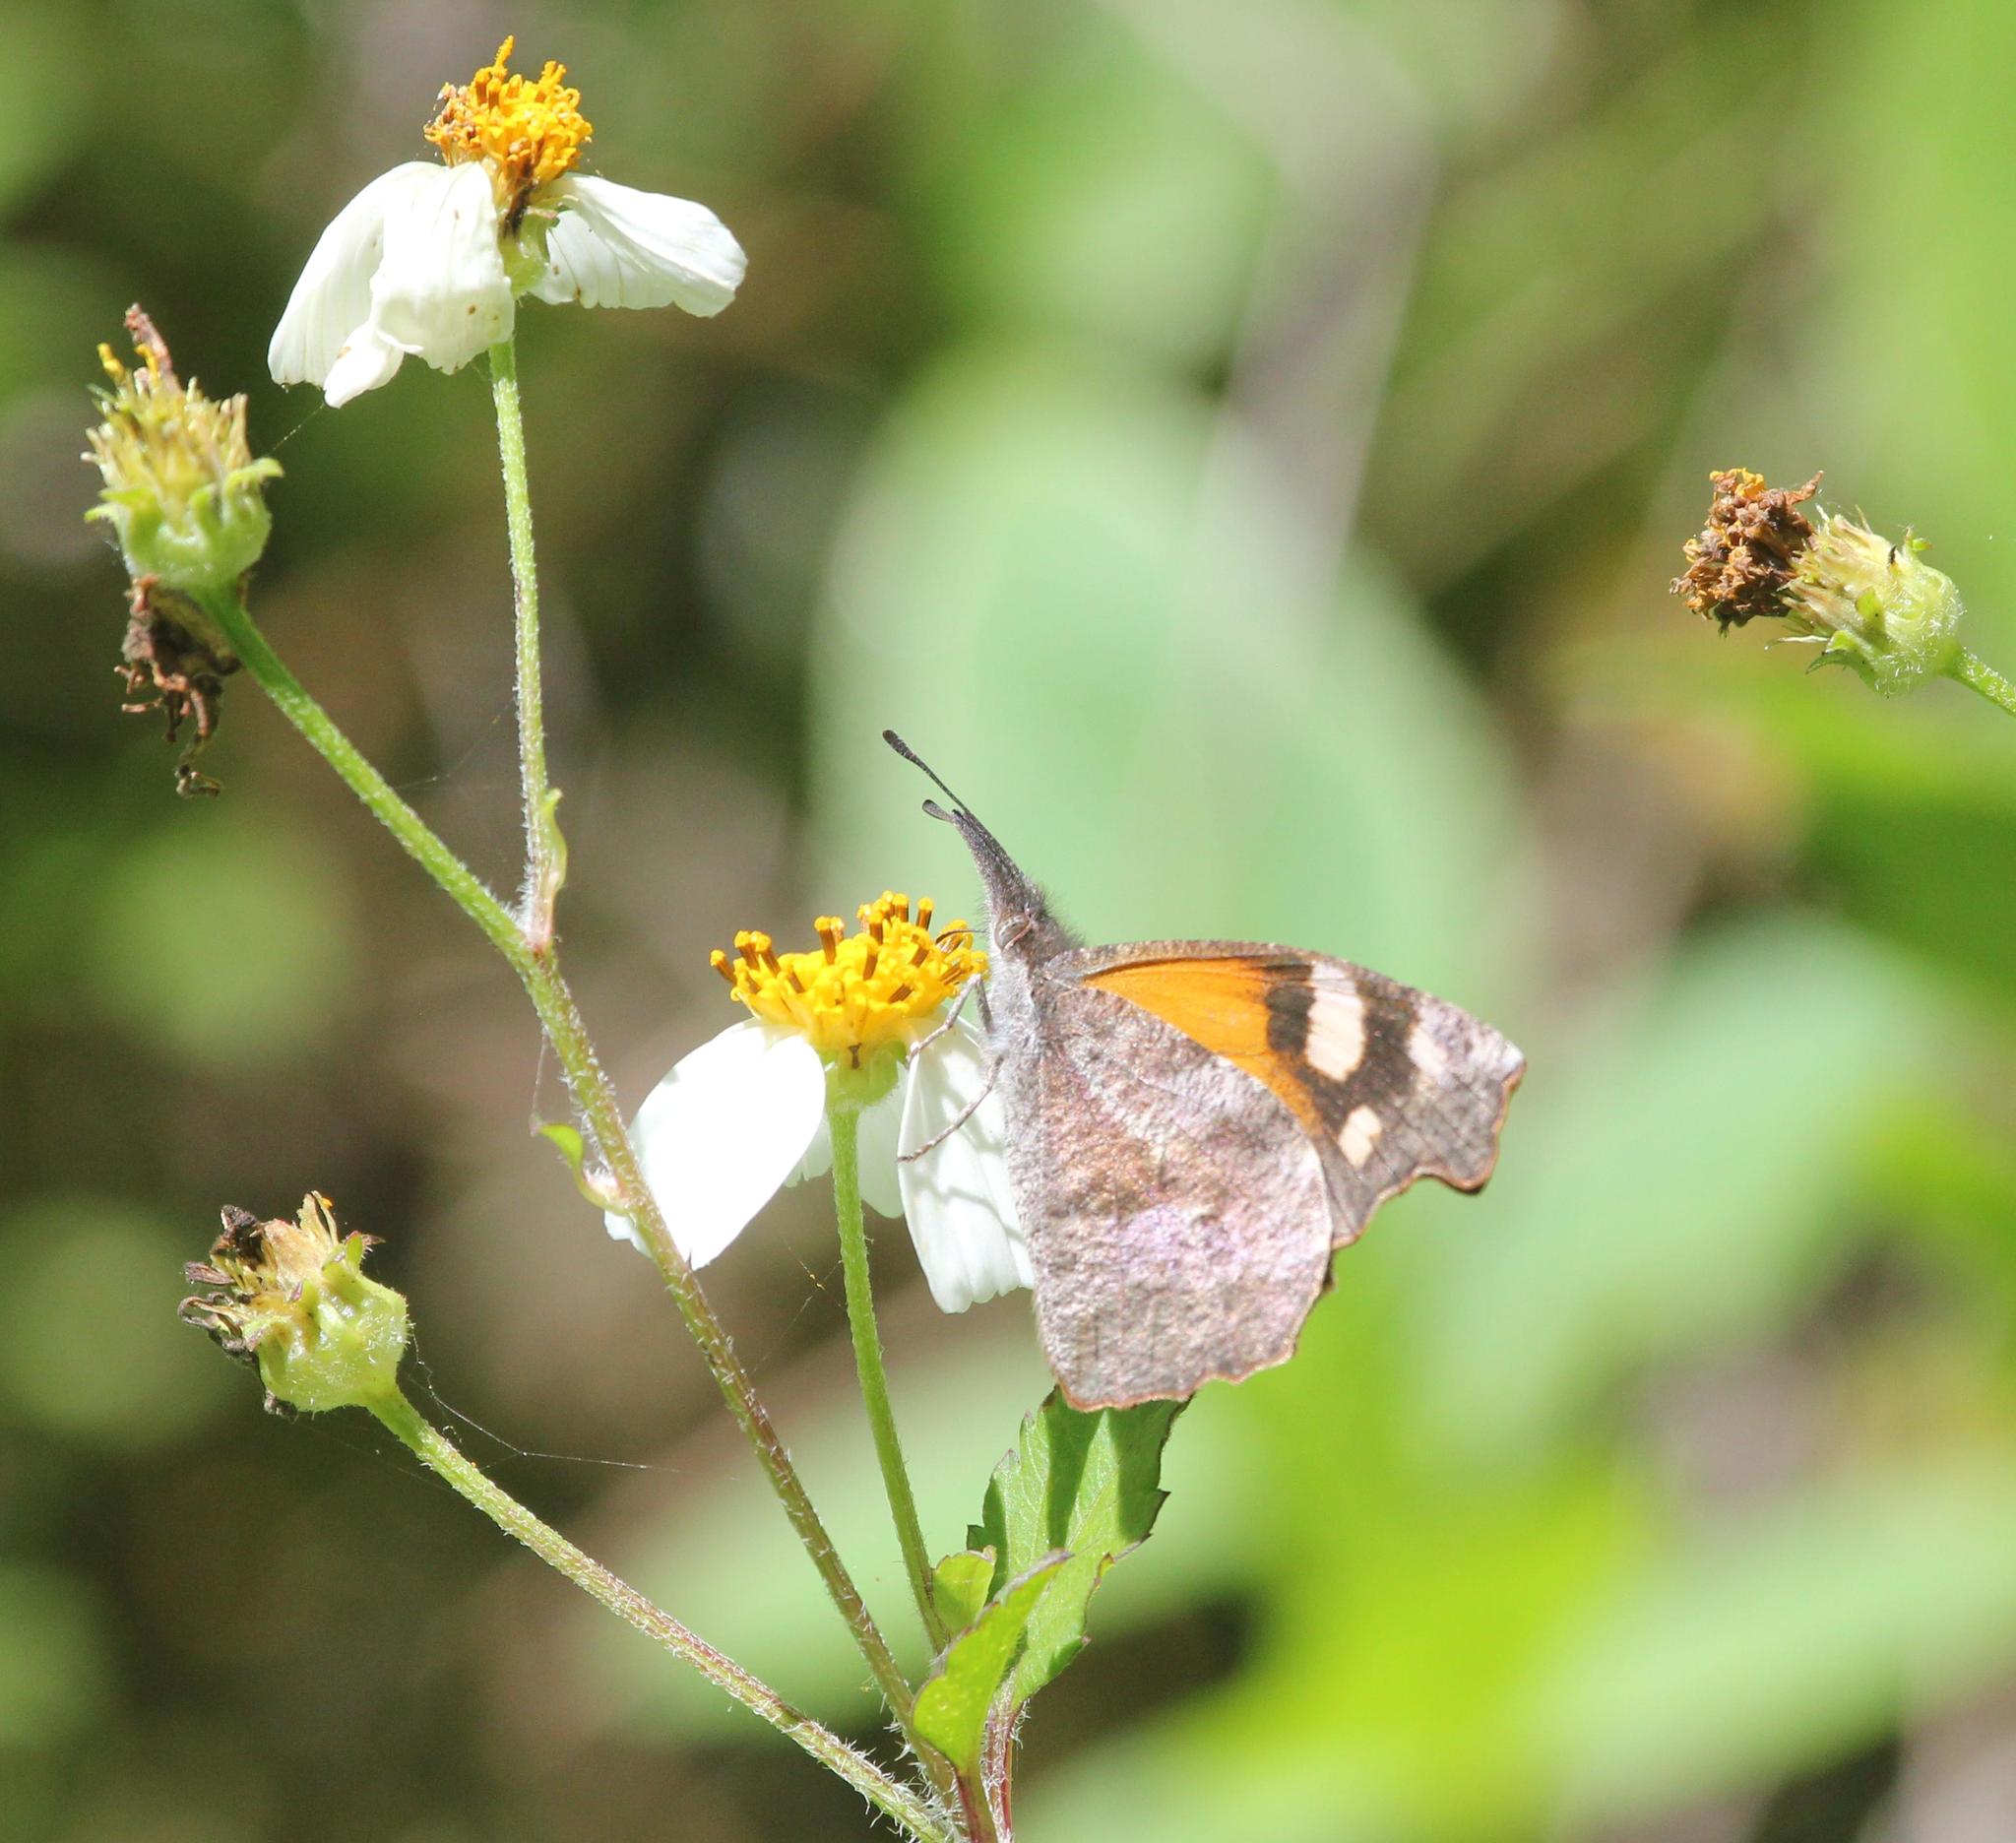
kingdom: Animalia
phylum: Arthropoda
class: Insecta
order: Lepidoptera
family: Nymphalidae
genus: Libytheana
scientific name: Libytheana carinenta
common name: American snout
